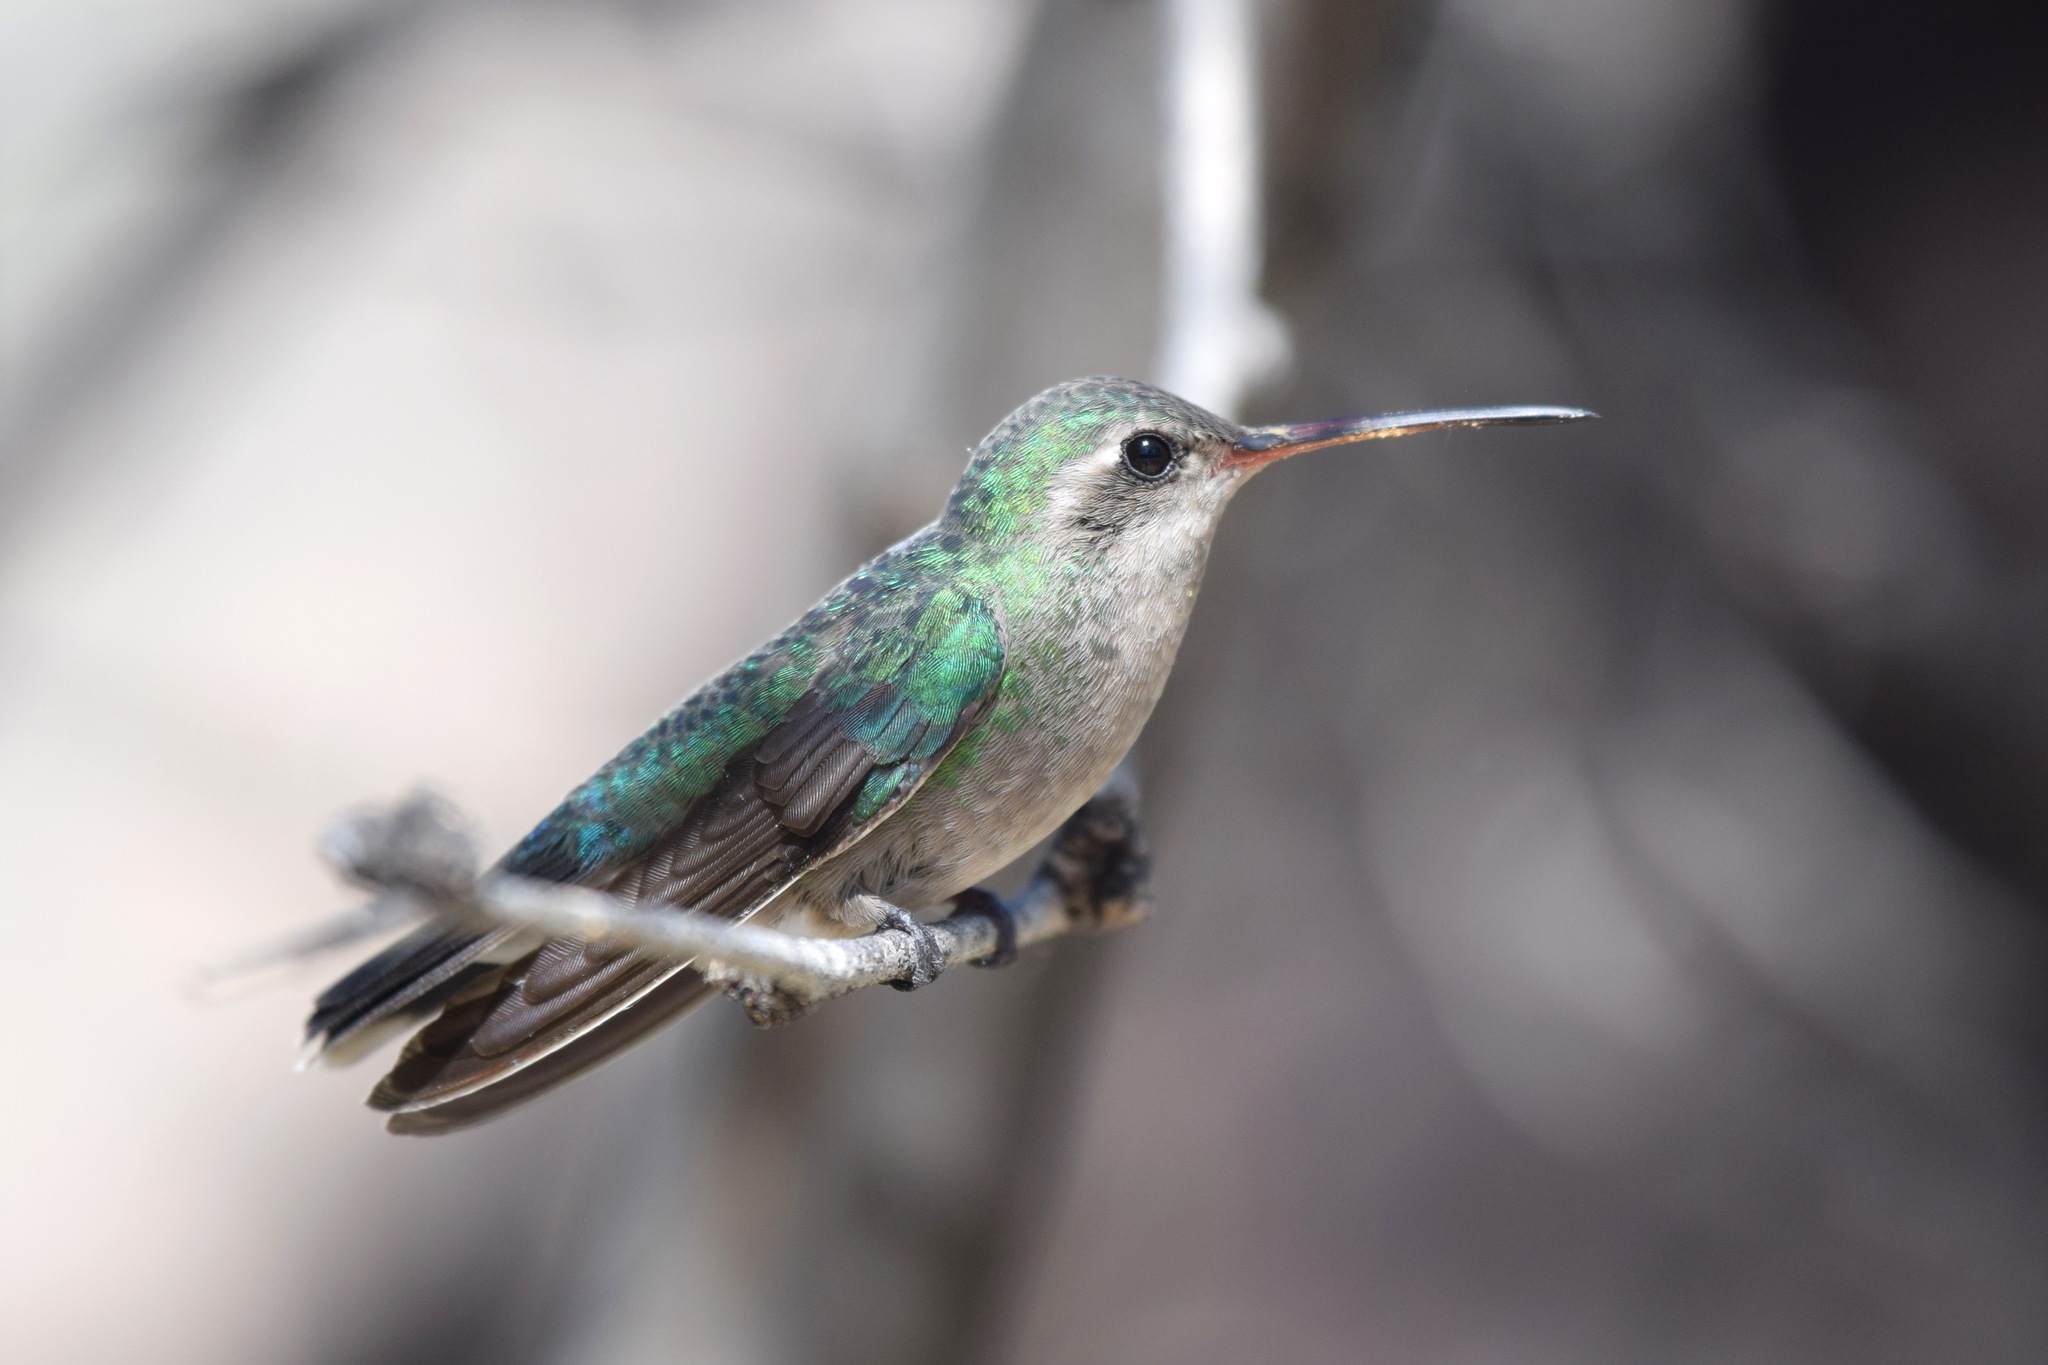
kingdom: Animalia
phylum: Chordata
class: Aves
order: Apodiformes
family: Trochilidae
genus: Cynanthus
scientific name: Cynanthus latirostris
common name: Broad-billed hummingbird
